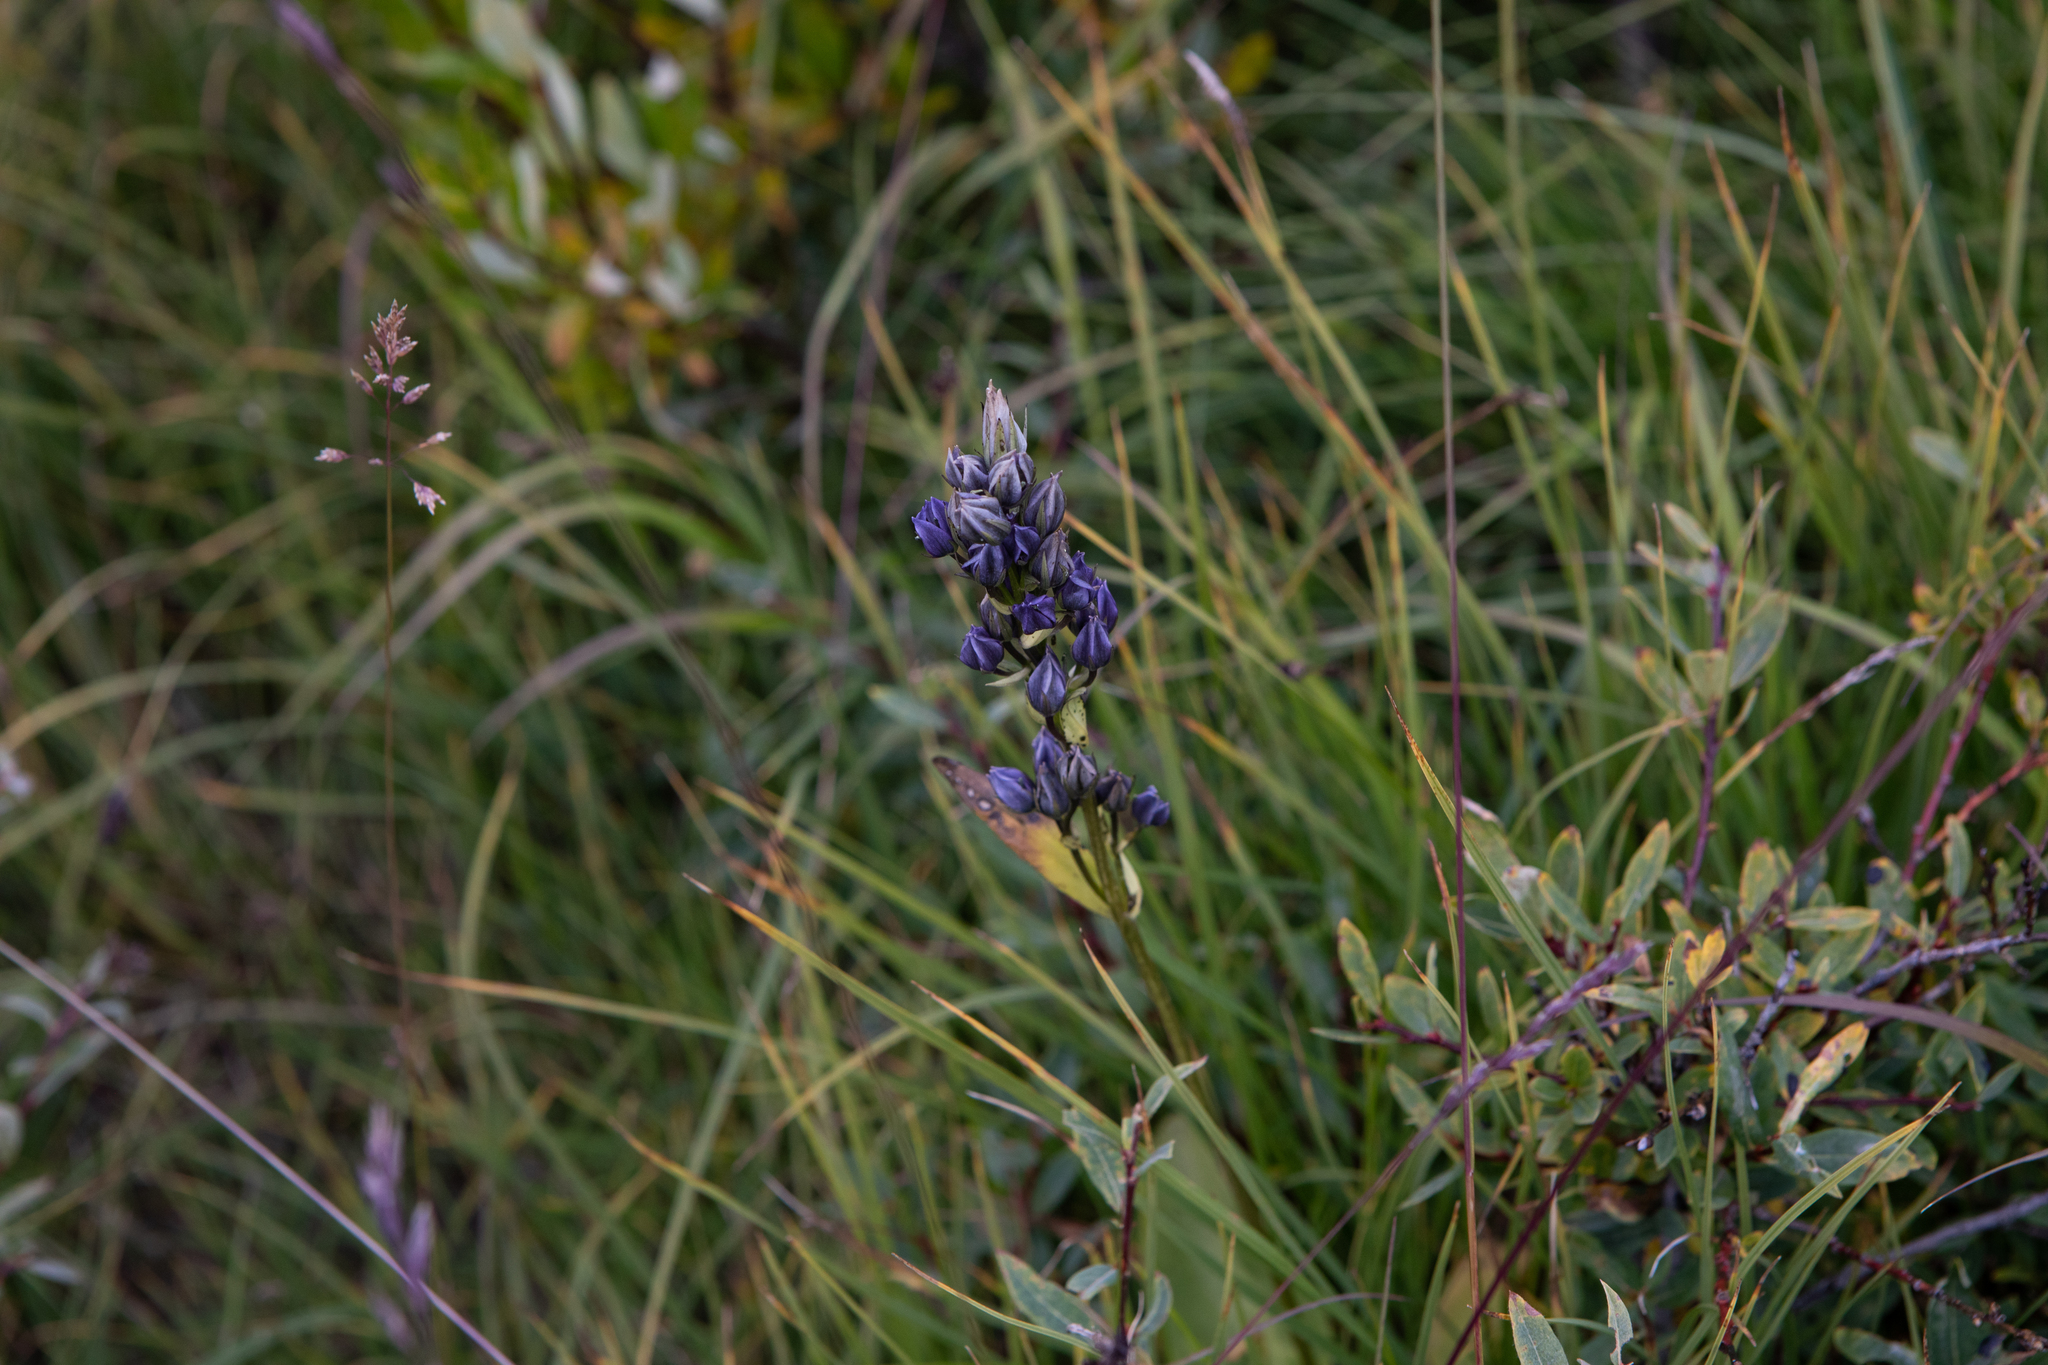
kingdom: Plantae
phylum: Tracheophyta
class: Magnoliopsida
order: Gentianales
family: Gentianaceae
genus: Swertia
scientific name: Swertia obtusa
